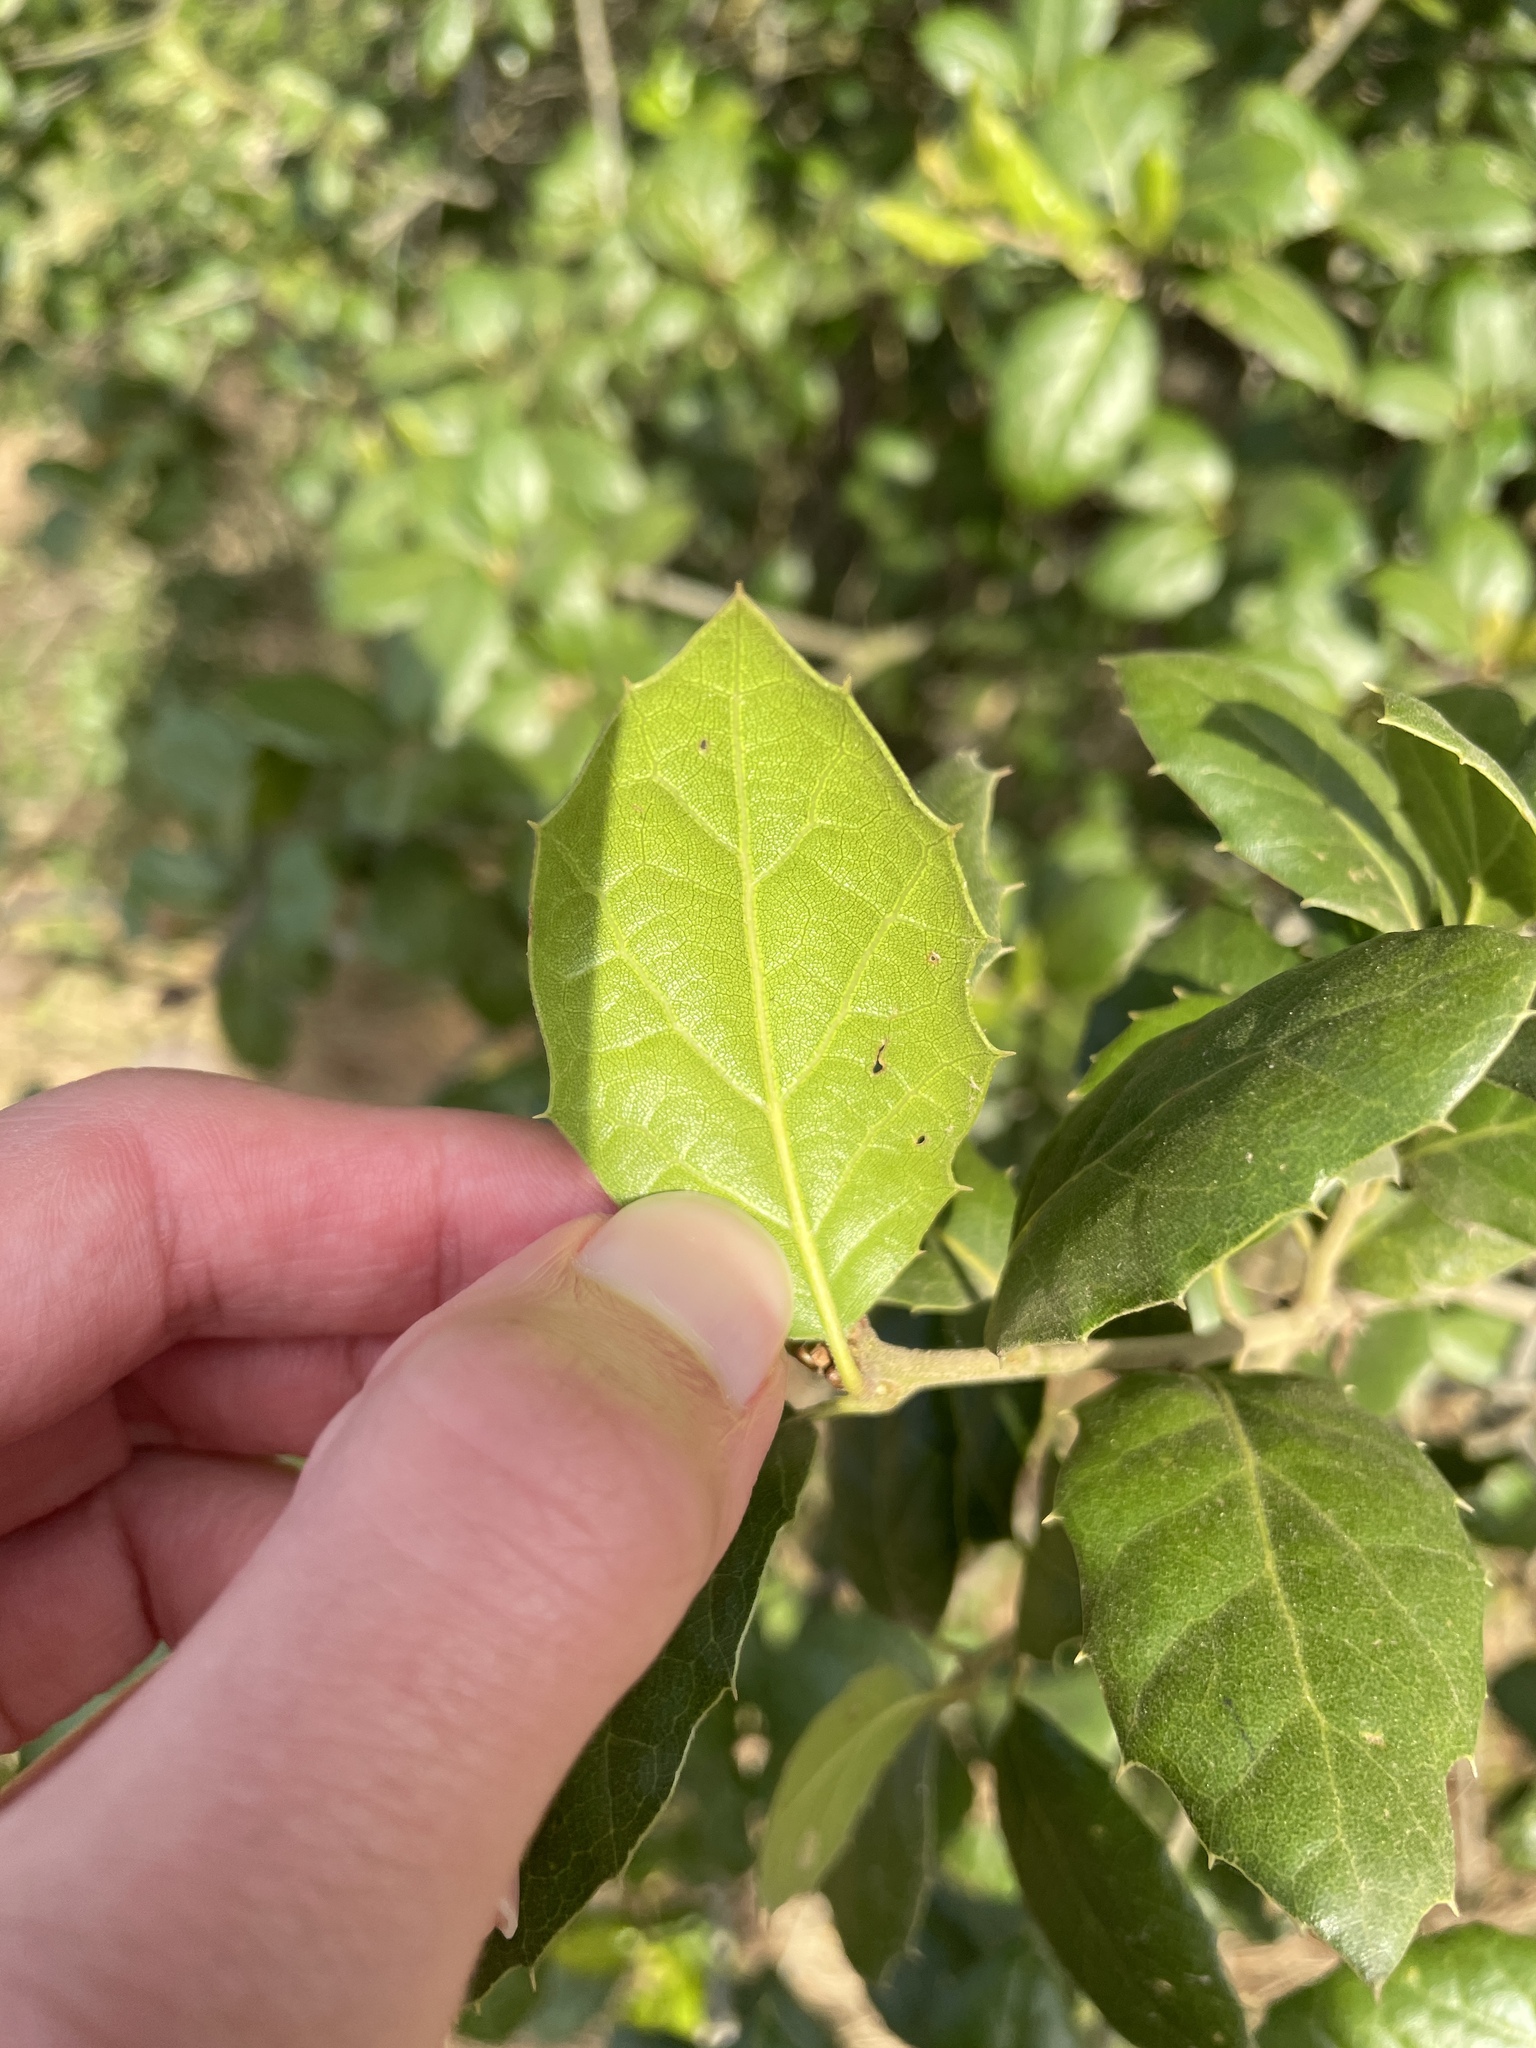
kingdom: Plantae
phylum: Tracheophyta
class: Magnoliopsida
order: Fagales
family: Fagaceae
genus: Quercus
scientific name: Quercus agrifolia
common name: California live oak
